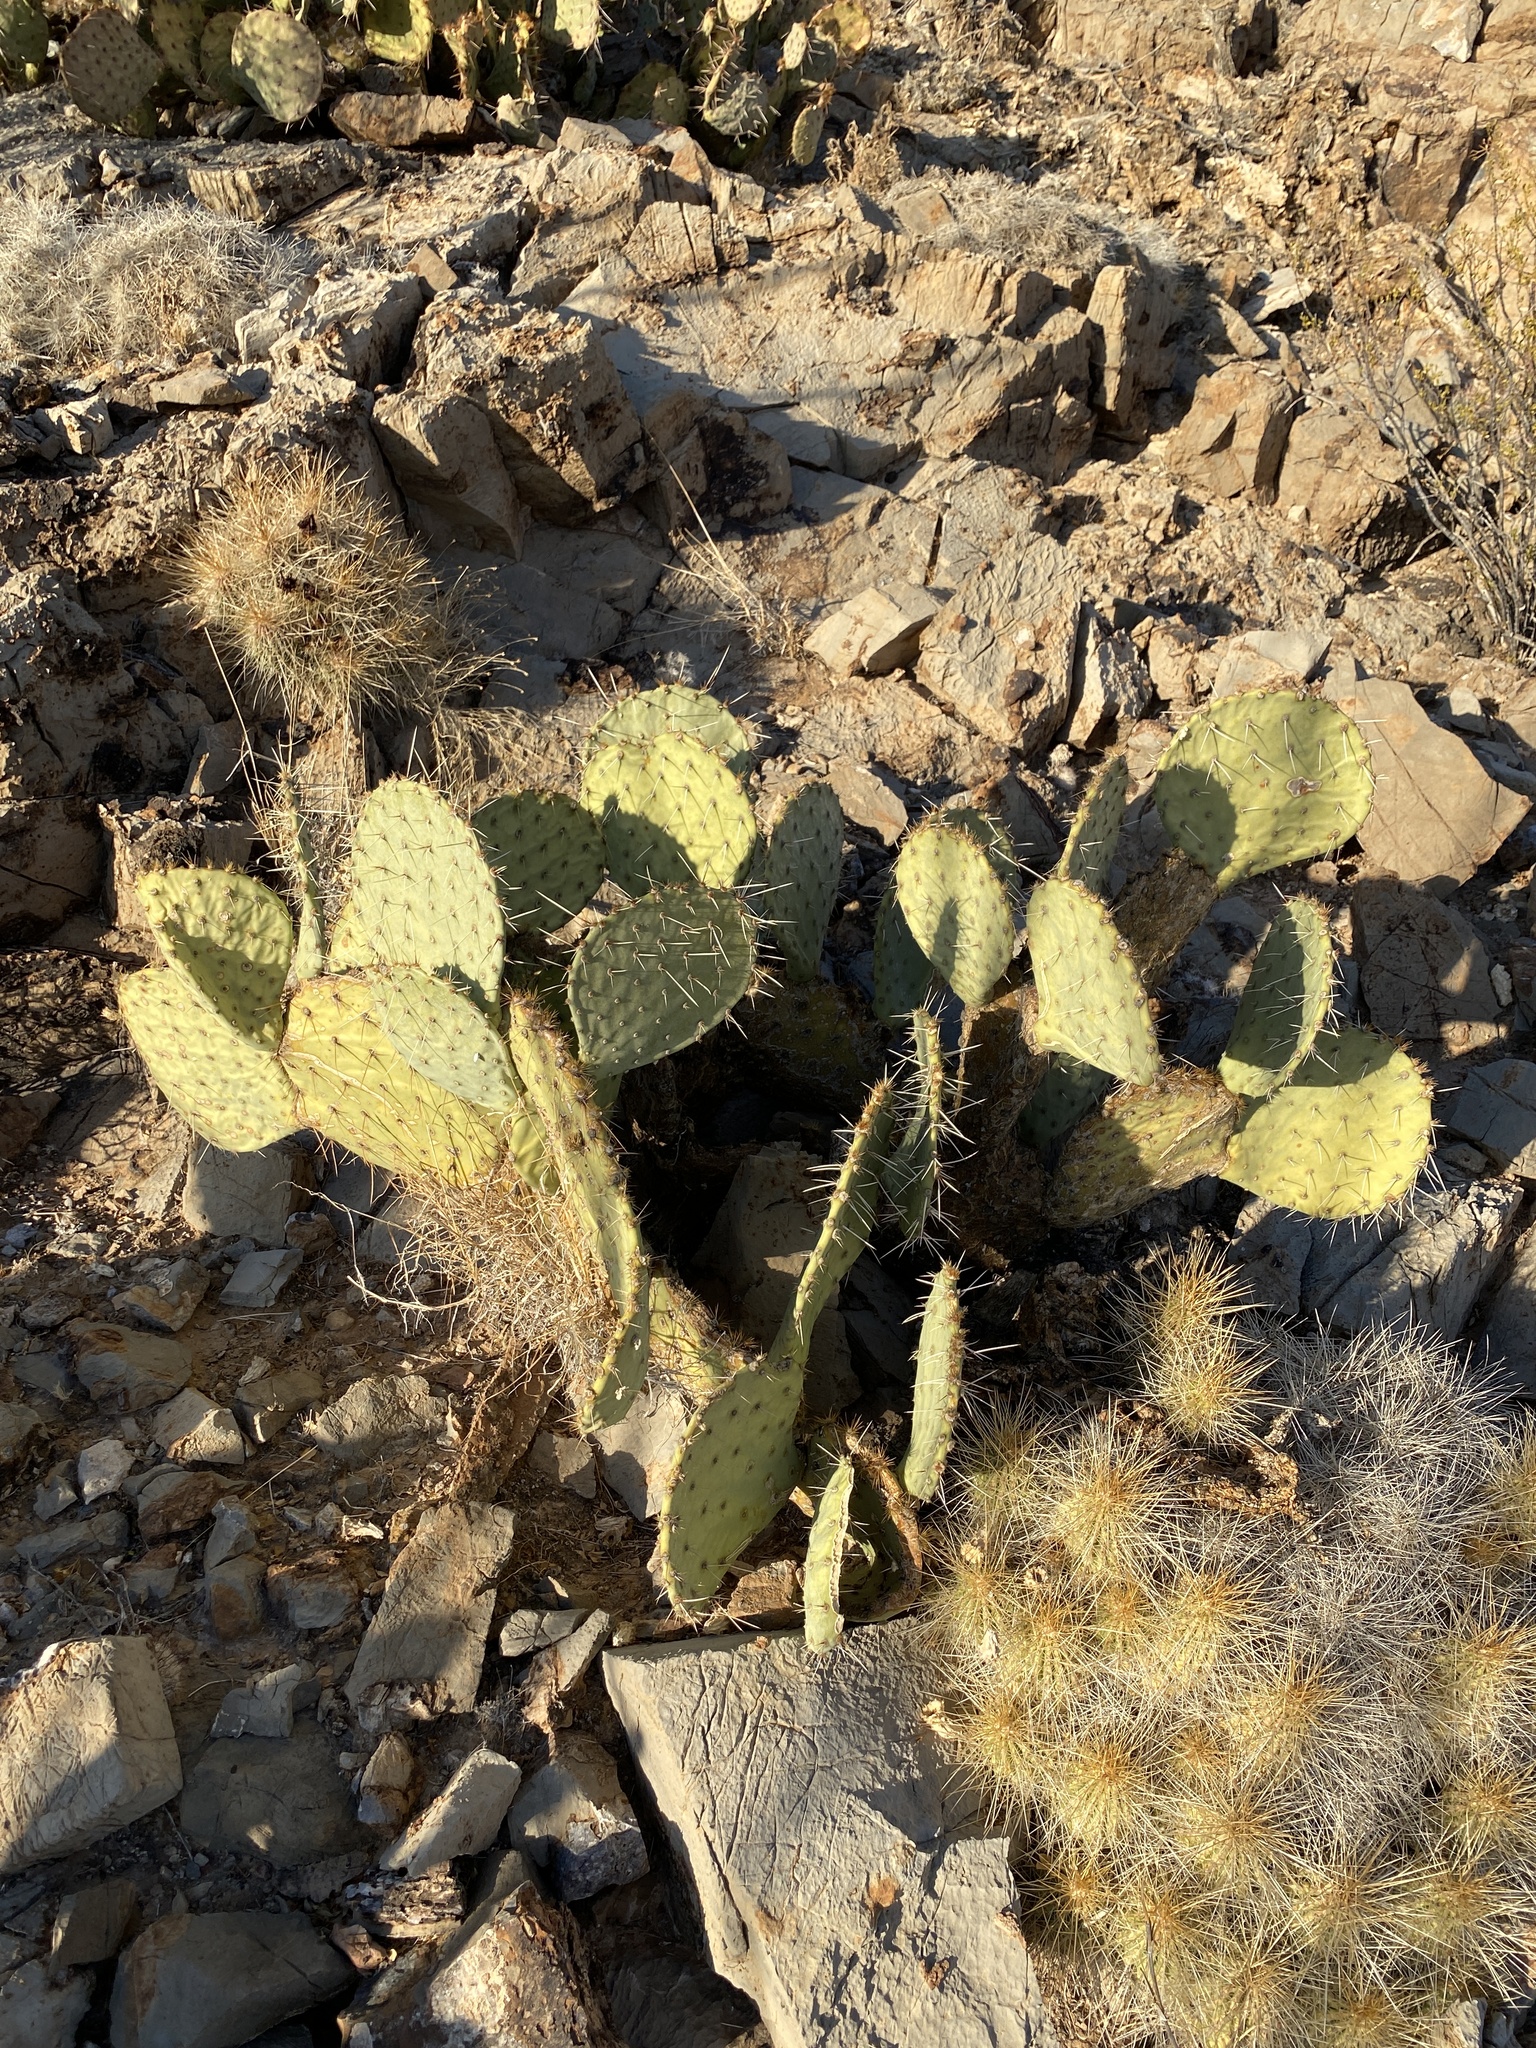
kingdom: Plantae
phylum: Tracheophyta
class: Magnoliopsida
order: Caryophyllales
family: Cactaceae
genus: Opuntia
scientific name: Opuntia engelmannii
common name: Cactus-apple
